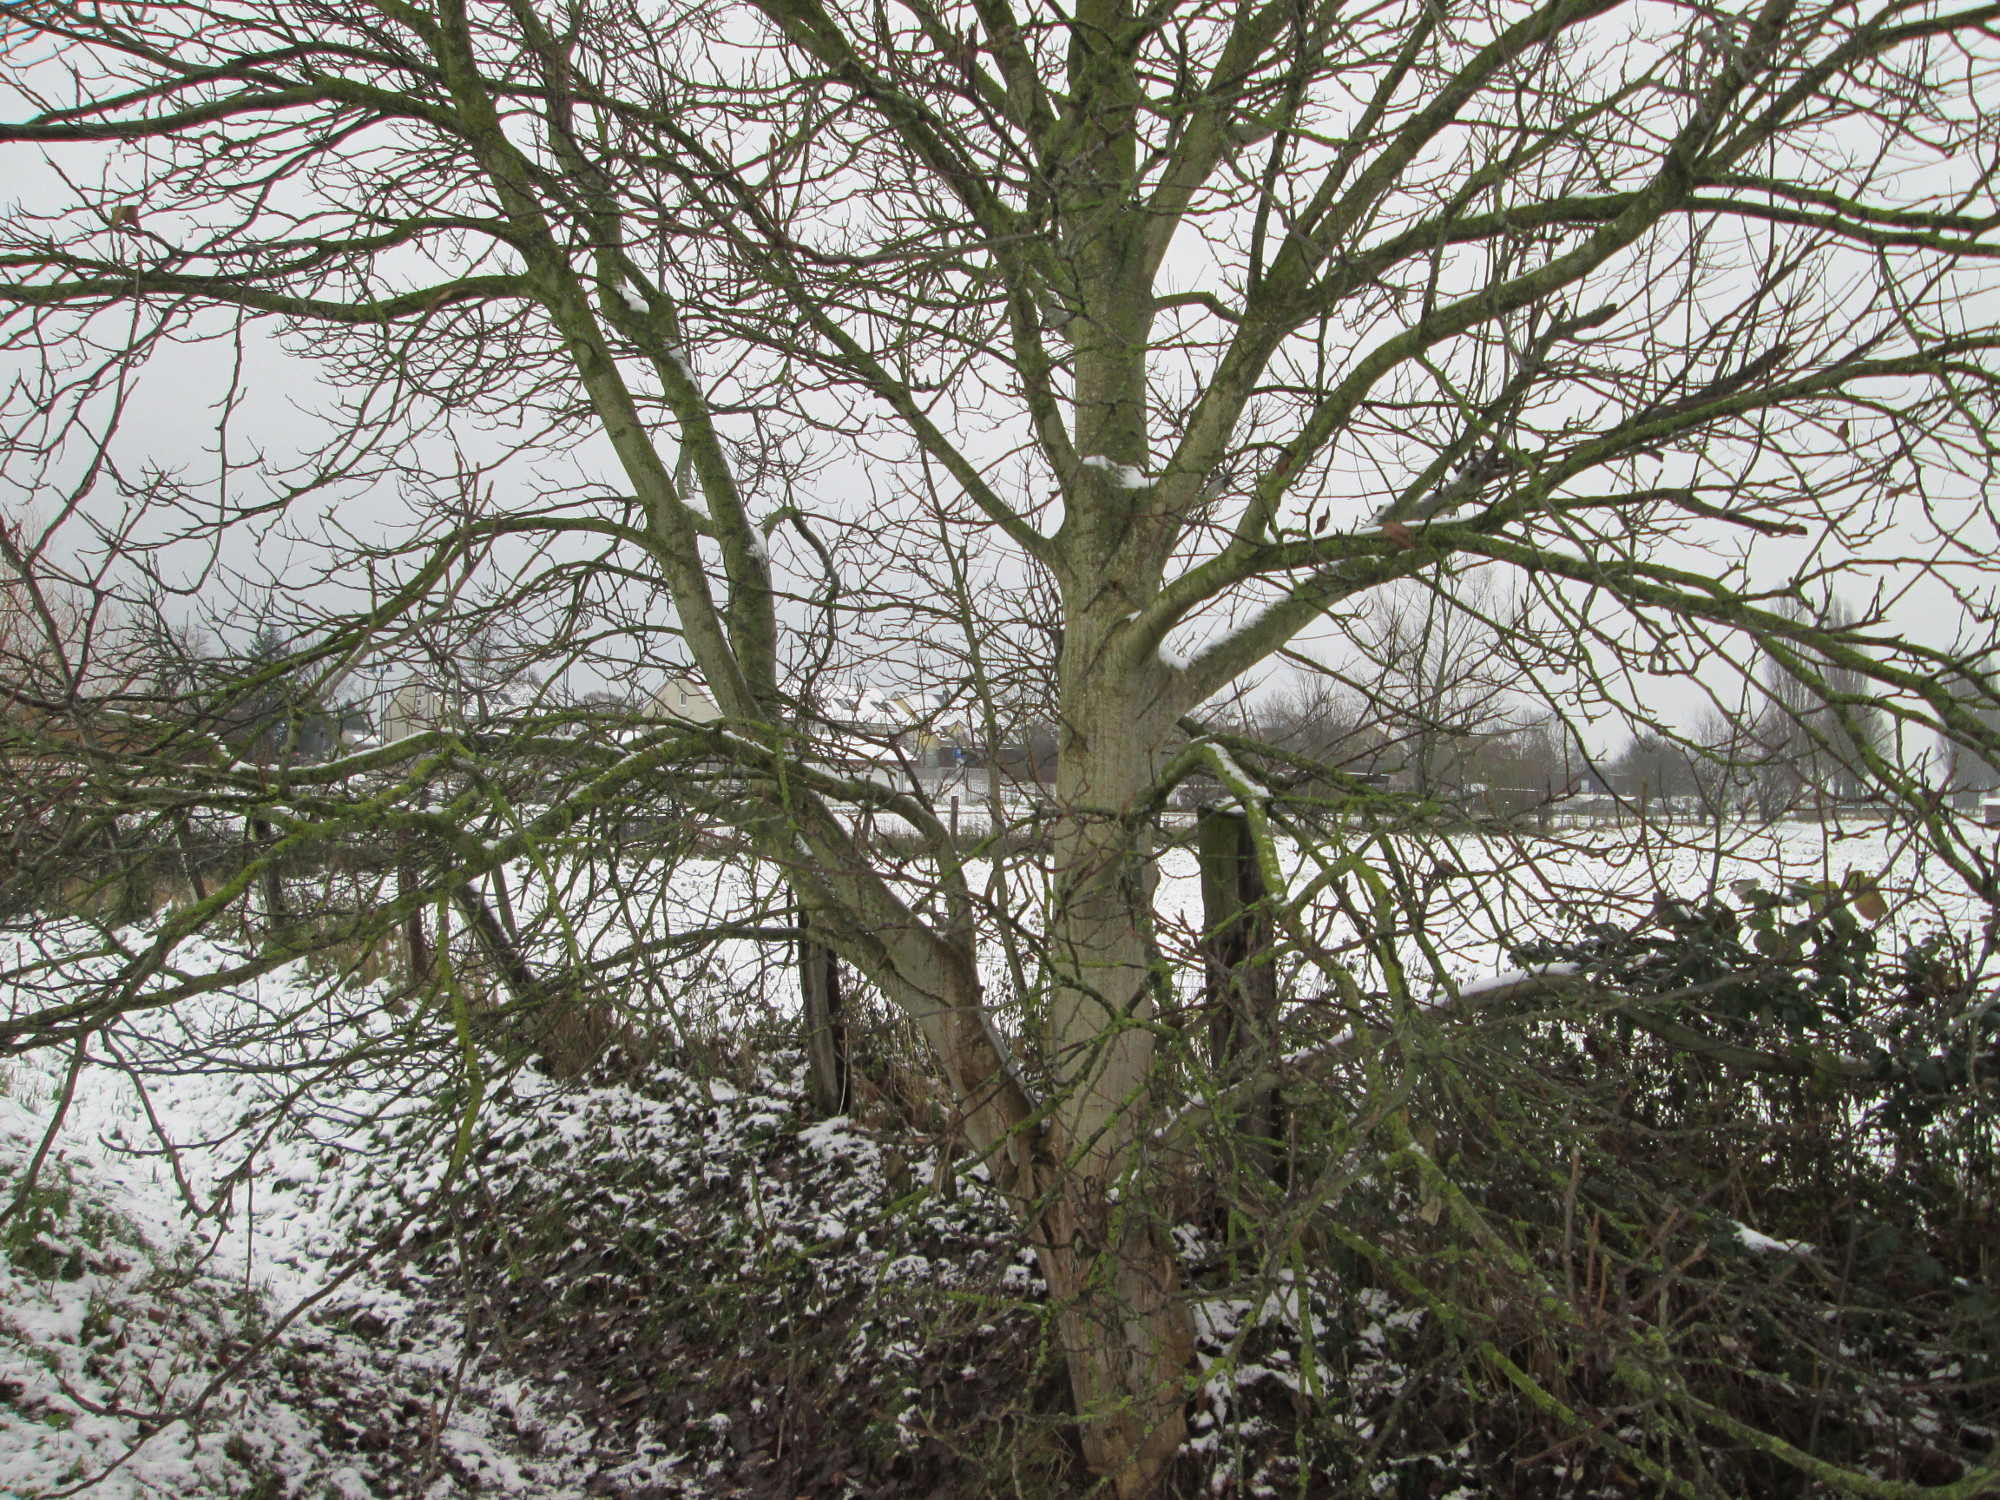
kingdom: Plantae
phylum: Tracheophyta
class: Magnoliopsida
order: Fagales
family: Juglandaceae
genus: Juglans
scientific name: Juglans regia
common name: Walnut
